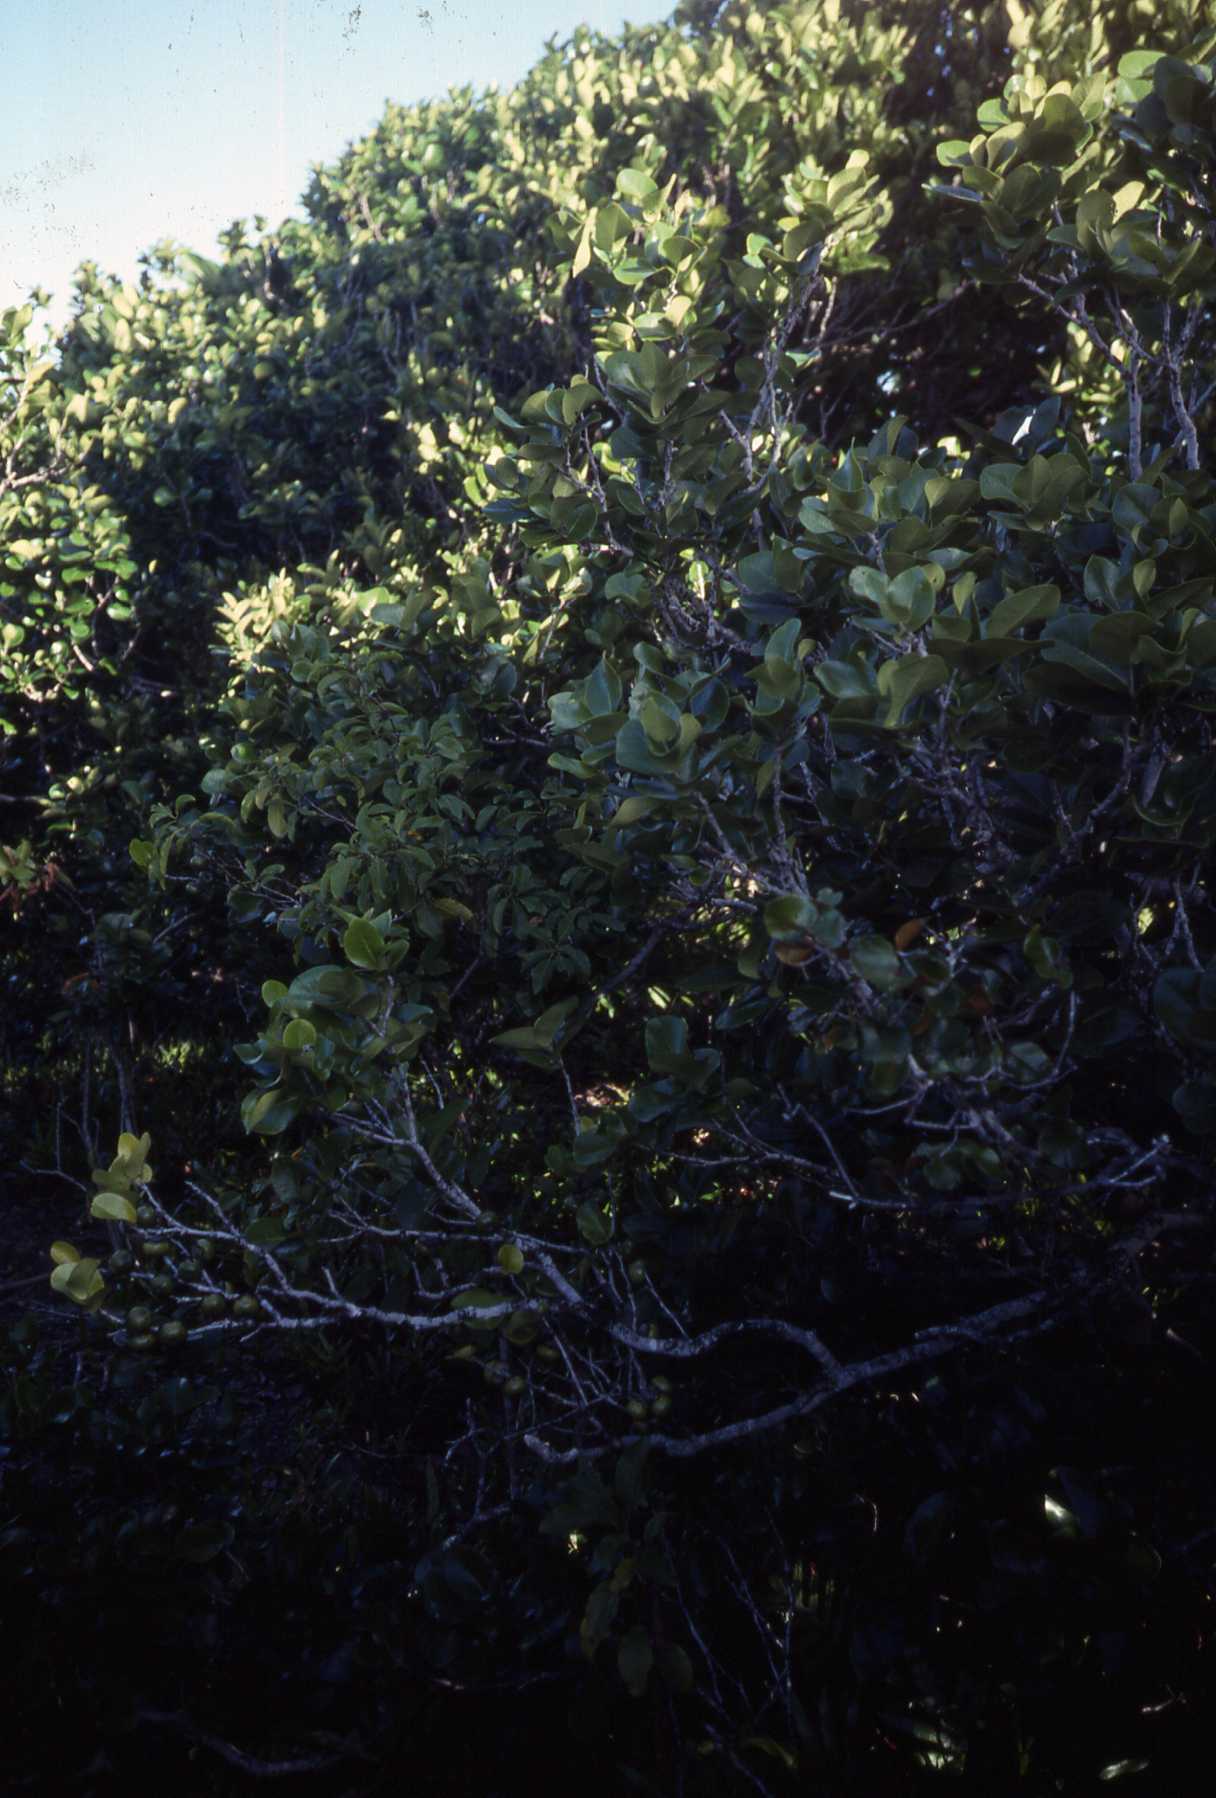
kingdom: Plantae
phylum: Tracheophyta
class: Magnoliopsida
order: Ericales
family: Ebenaceae
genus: Diospyros
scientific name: Diospyros egrettarum
